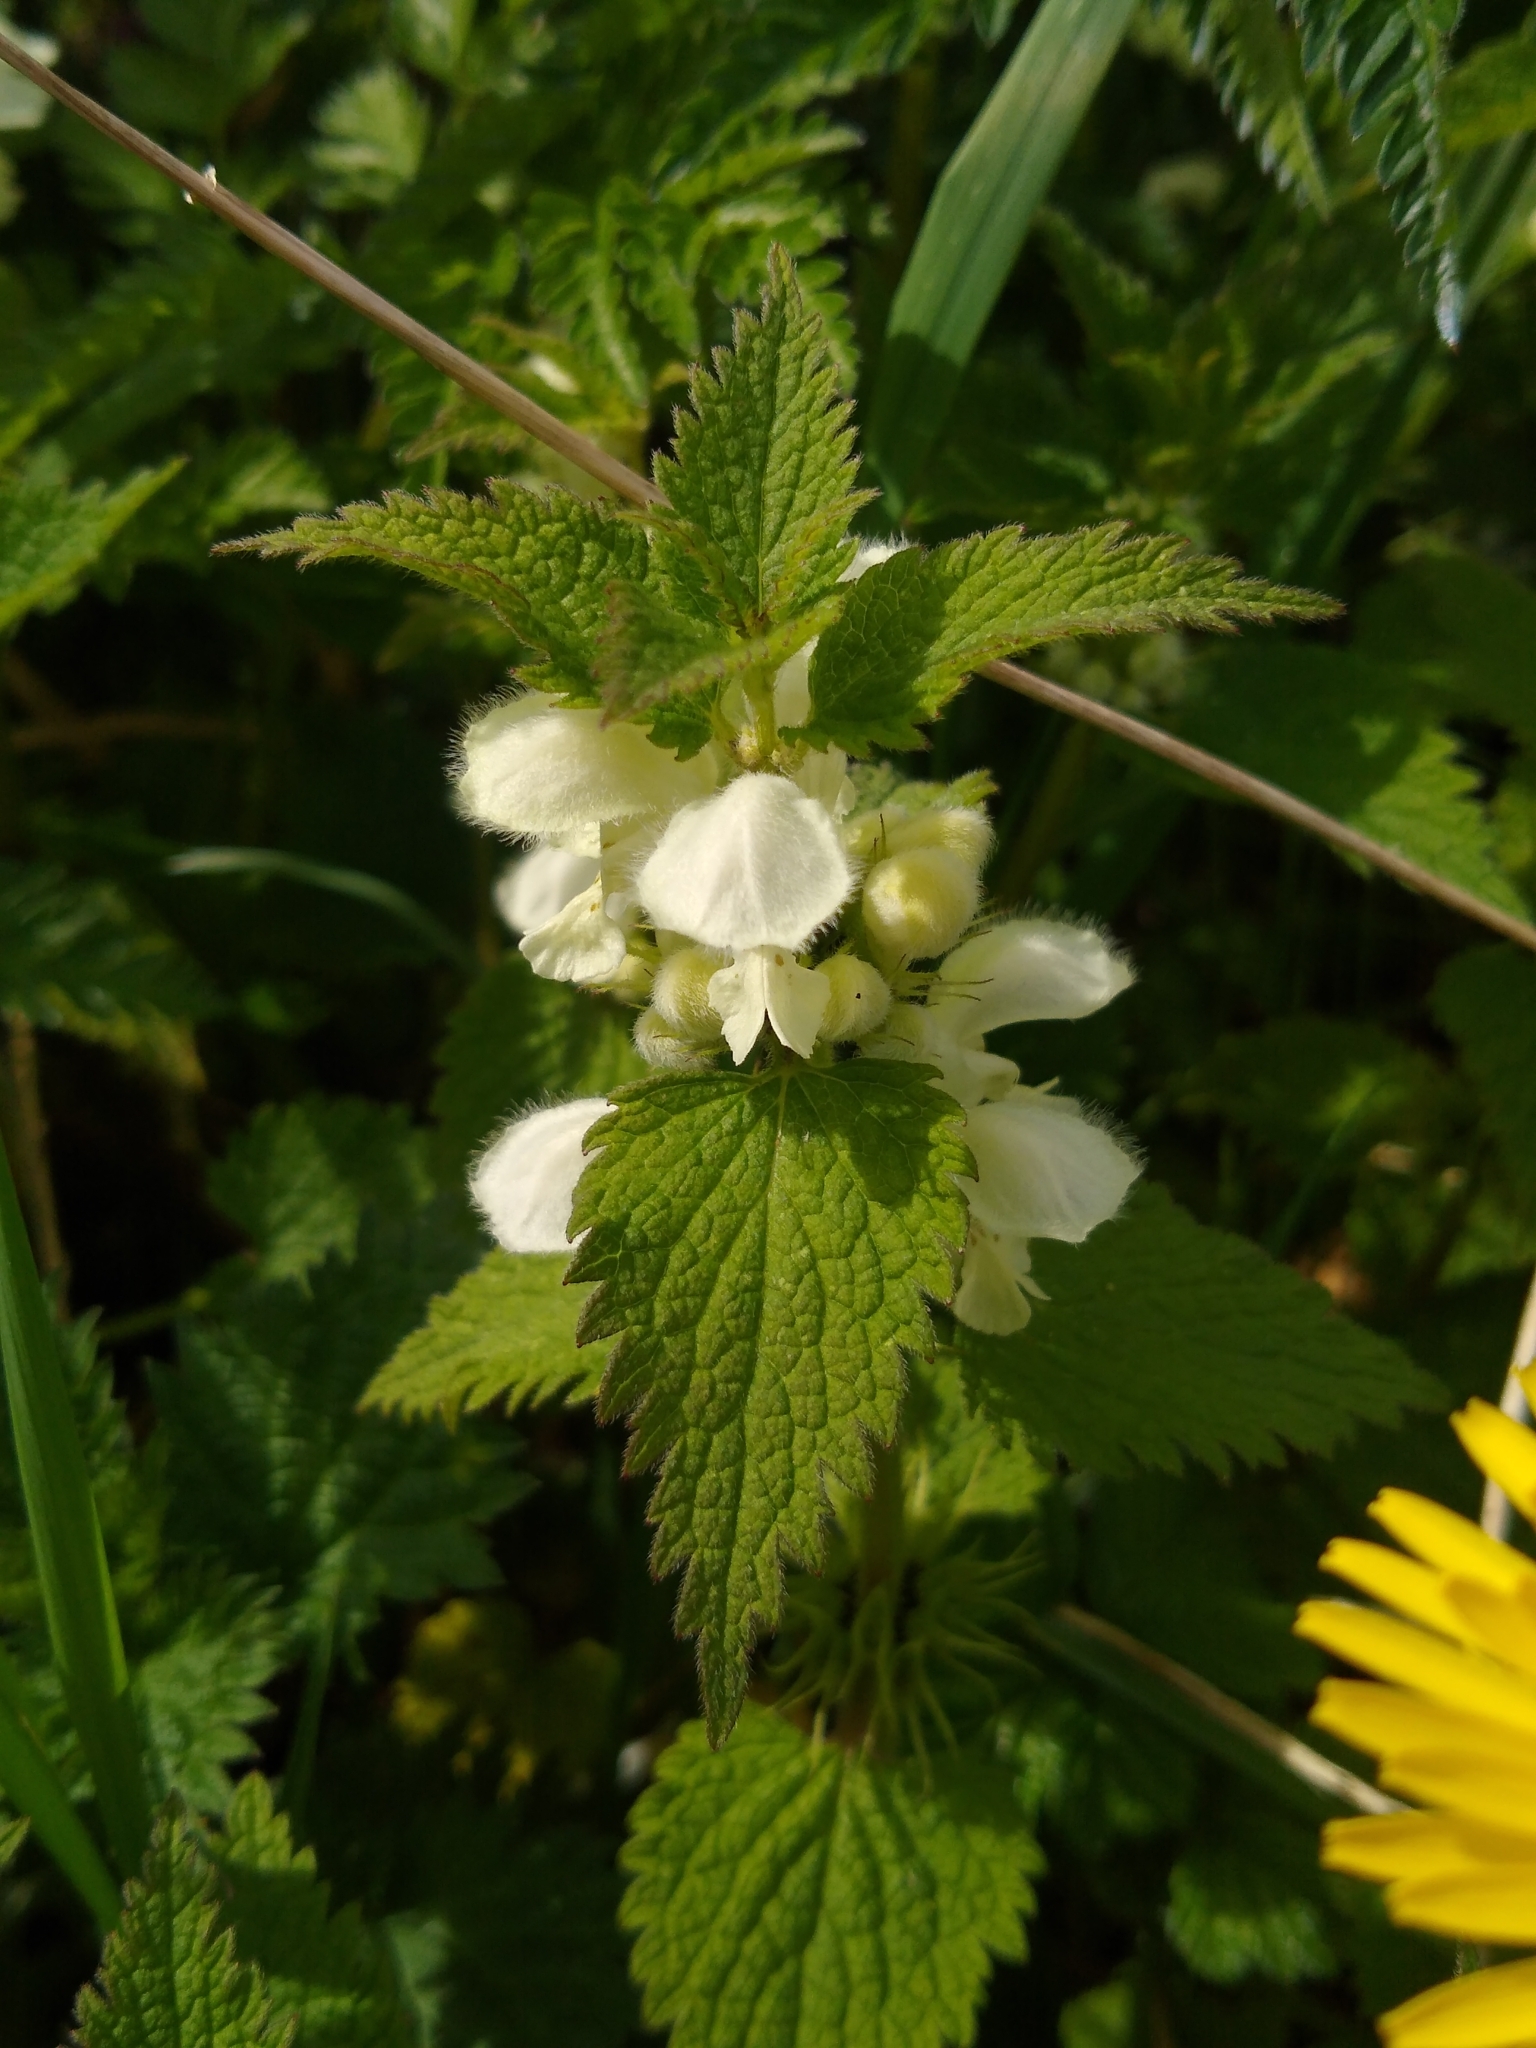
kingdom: Plantae
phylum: Tracheophyta
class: Magnoliopsida
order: Lamiales
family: Lamiaceae
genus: Lamium
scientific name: Lamium album
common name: White dead-nettle
